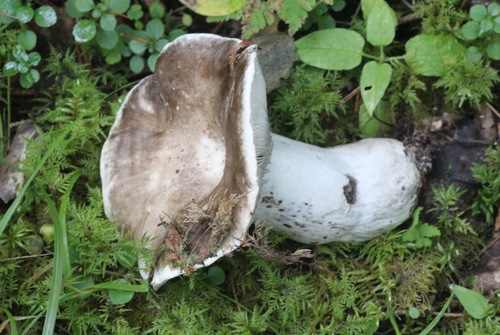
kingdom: Fungi
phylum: Basidiomycota
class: Agaricomycetes
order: Russulales
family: Russulaceae
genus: Russula
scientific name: Russula albonigra
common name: Menthol brittlegill
